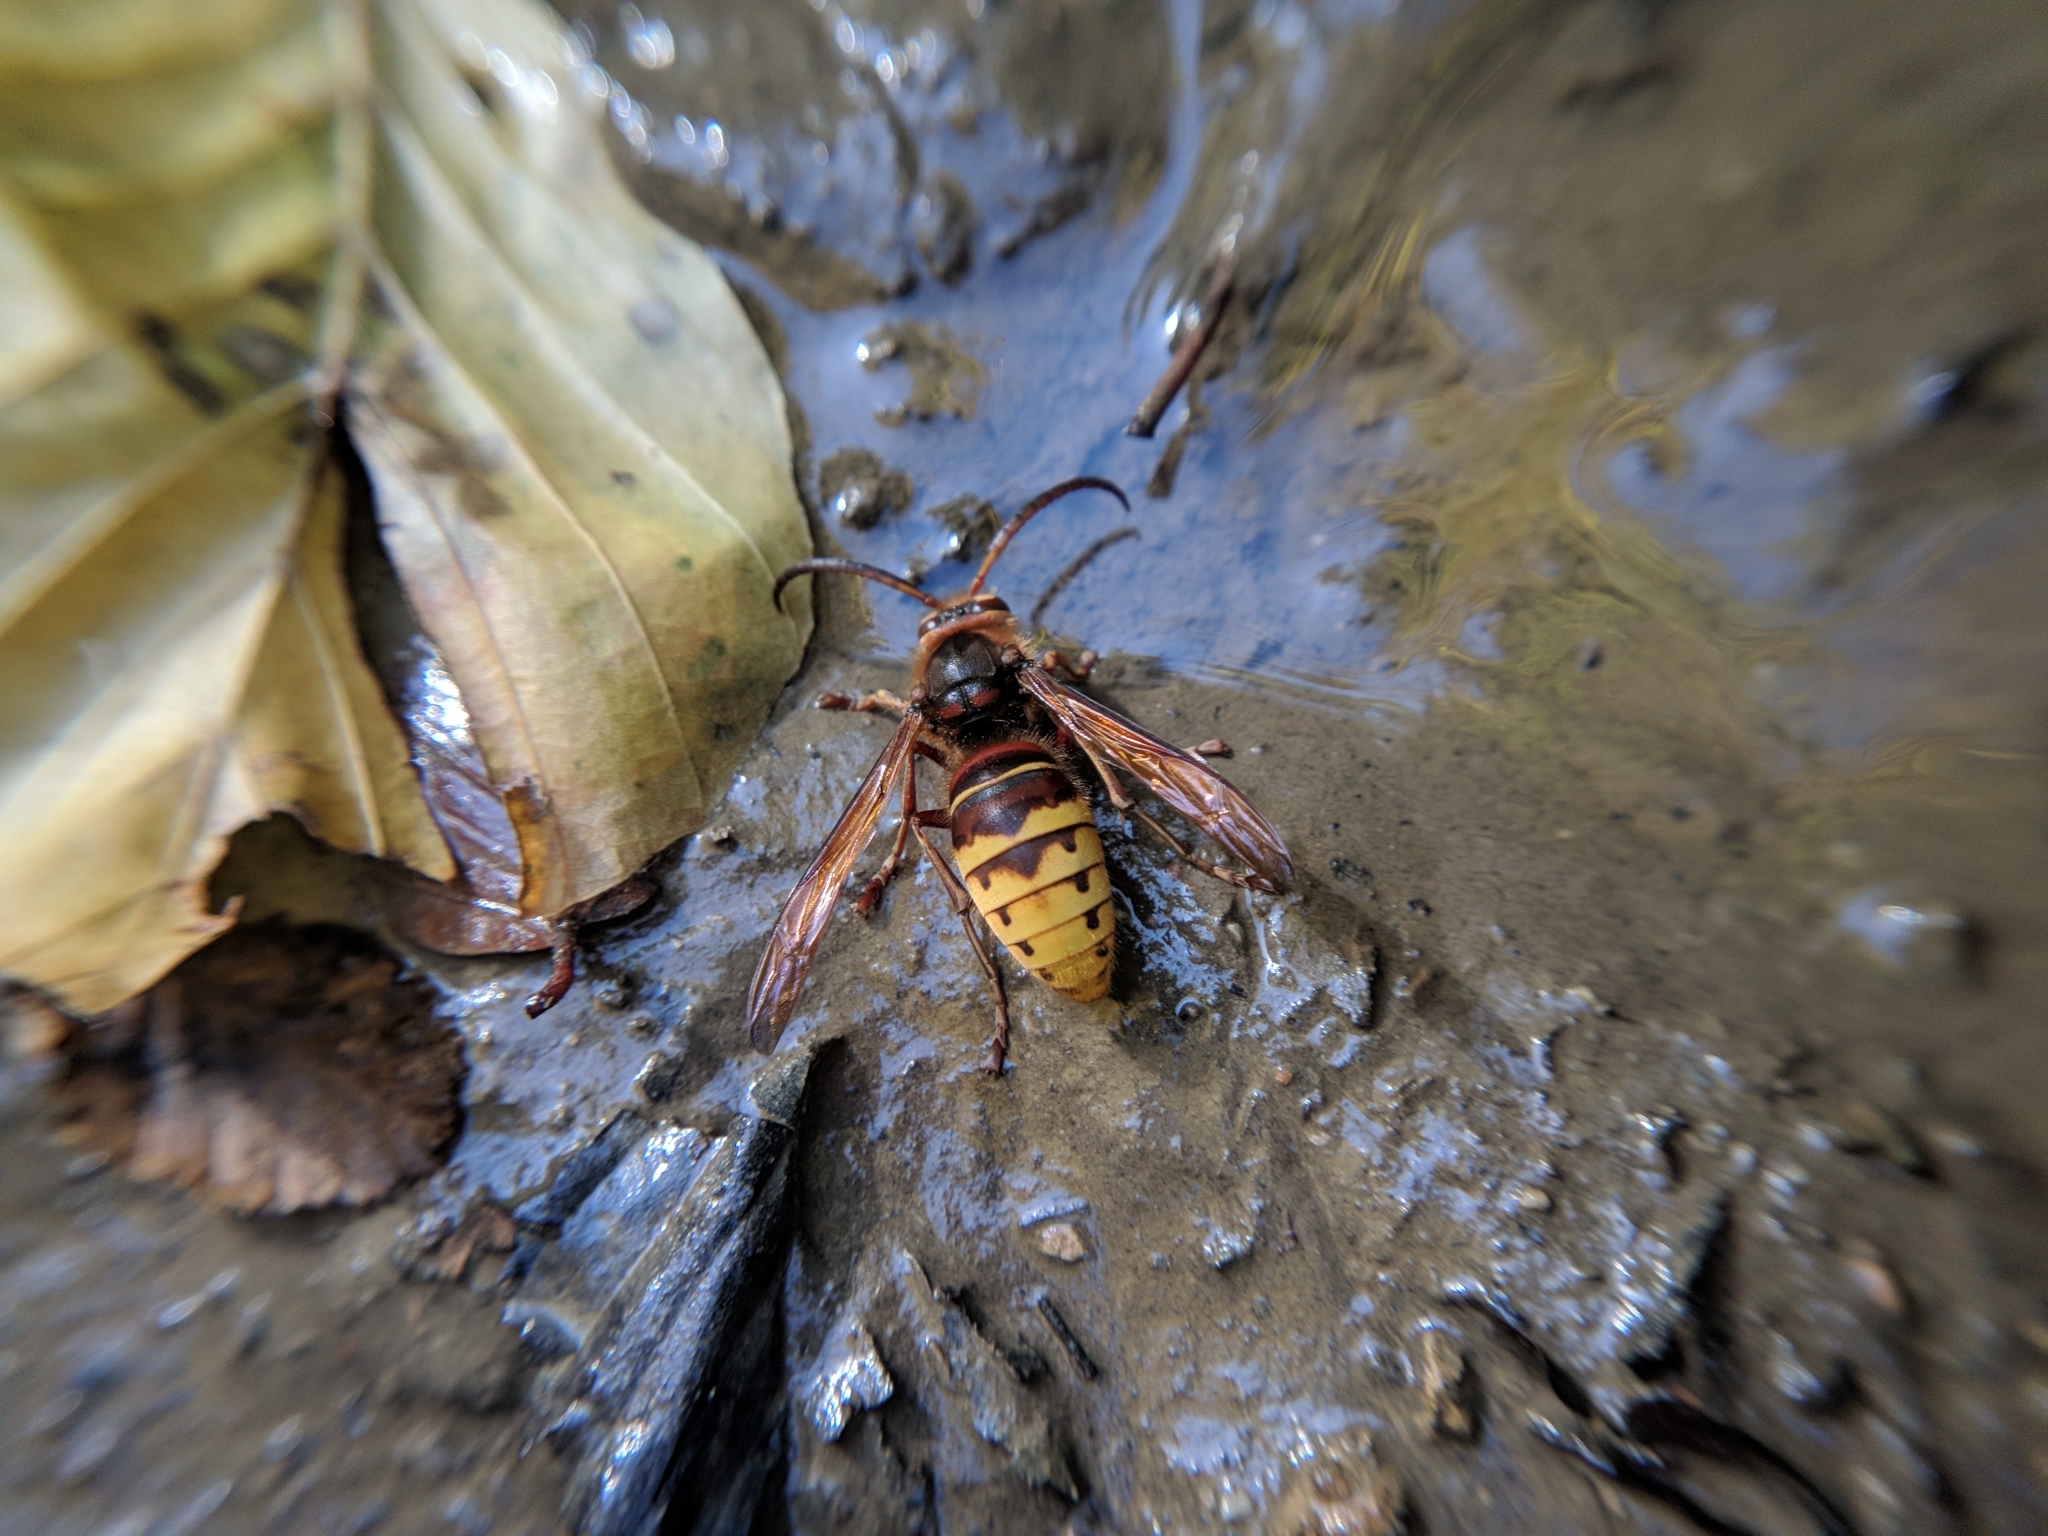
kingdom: Animalia
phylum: Arthropoda
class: Insecta
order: Hymenoptera
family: Vespidae
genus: Vespa
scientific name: Vespa crabro
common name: Hornet
